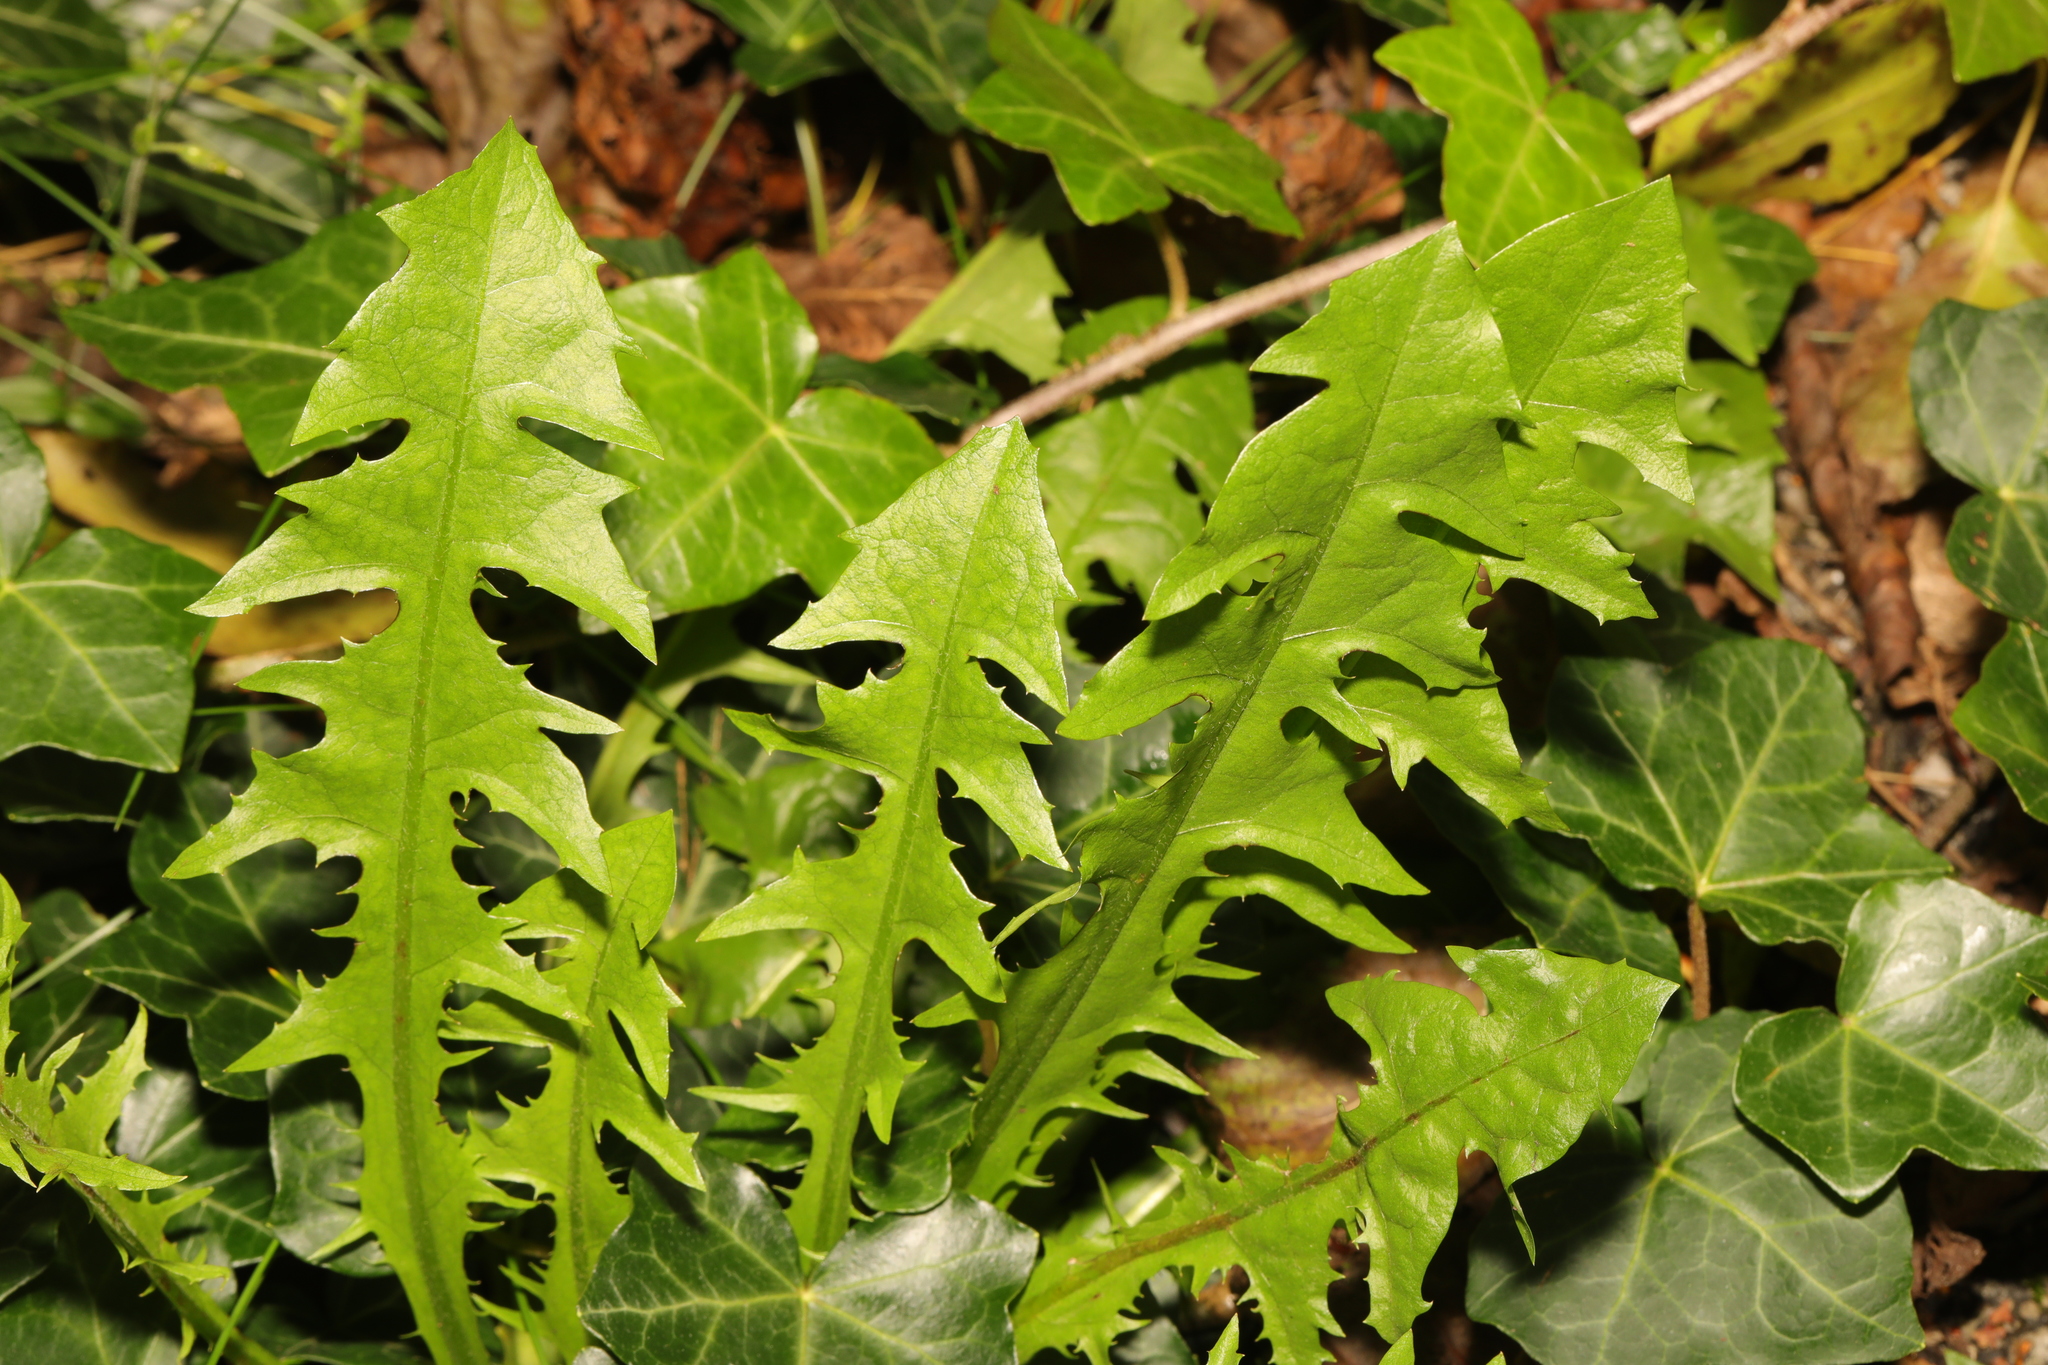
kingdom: Plantae
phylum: Tracheophyta
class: Magnoliopsida
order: Asterales
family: Asteraceae
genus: Taraxacum
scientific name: Taraxacum officinale
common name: Common dandelion
